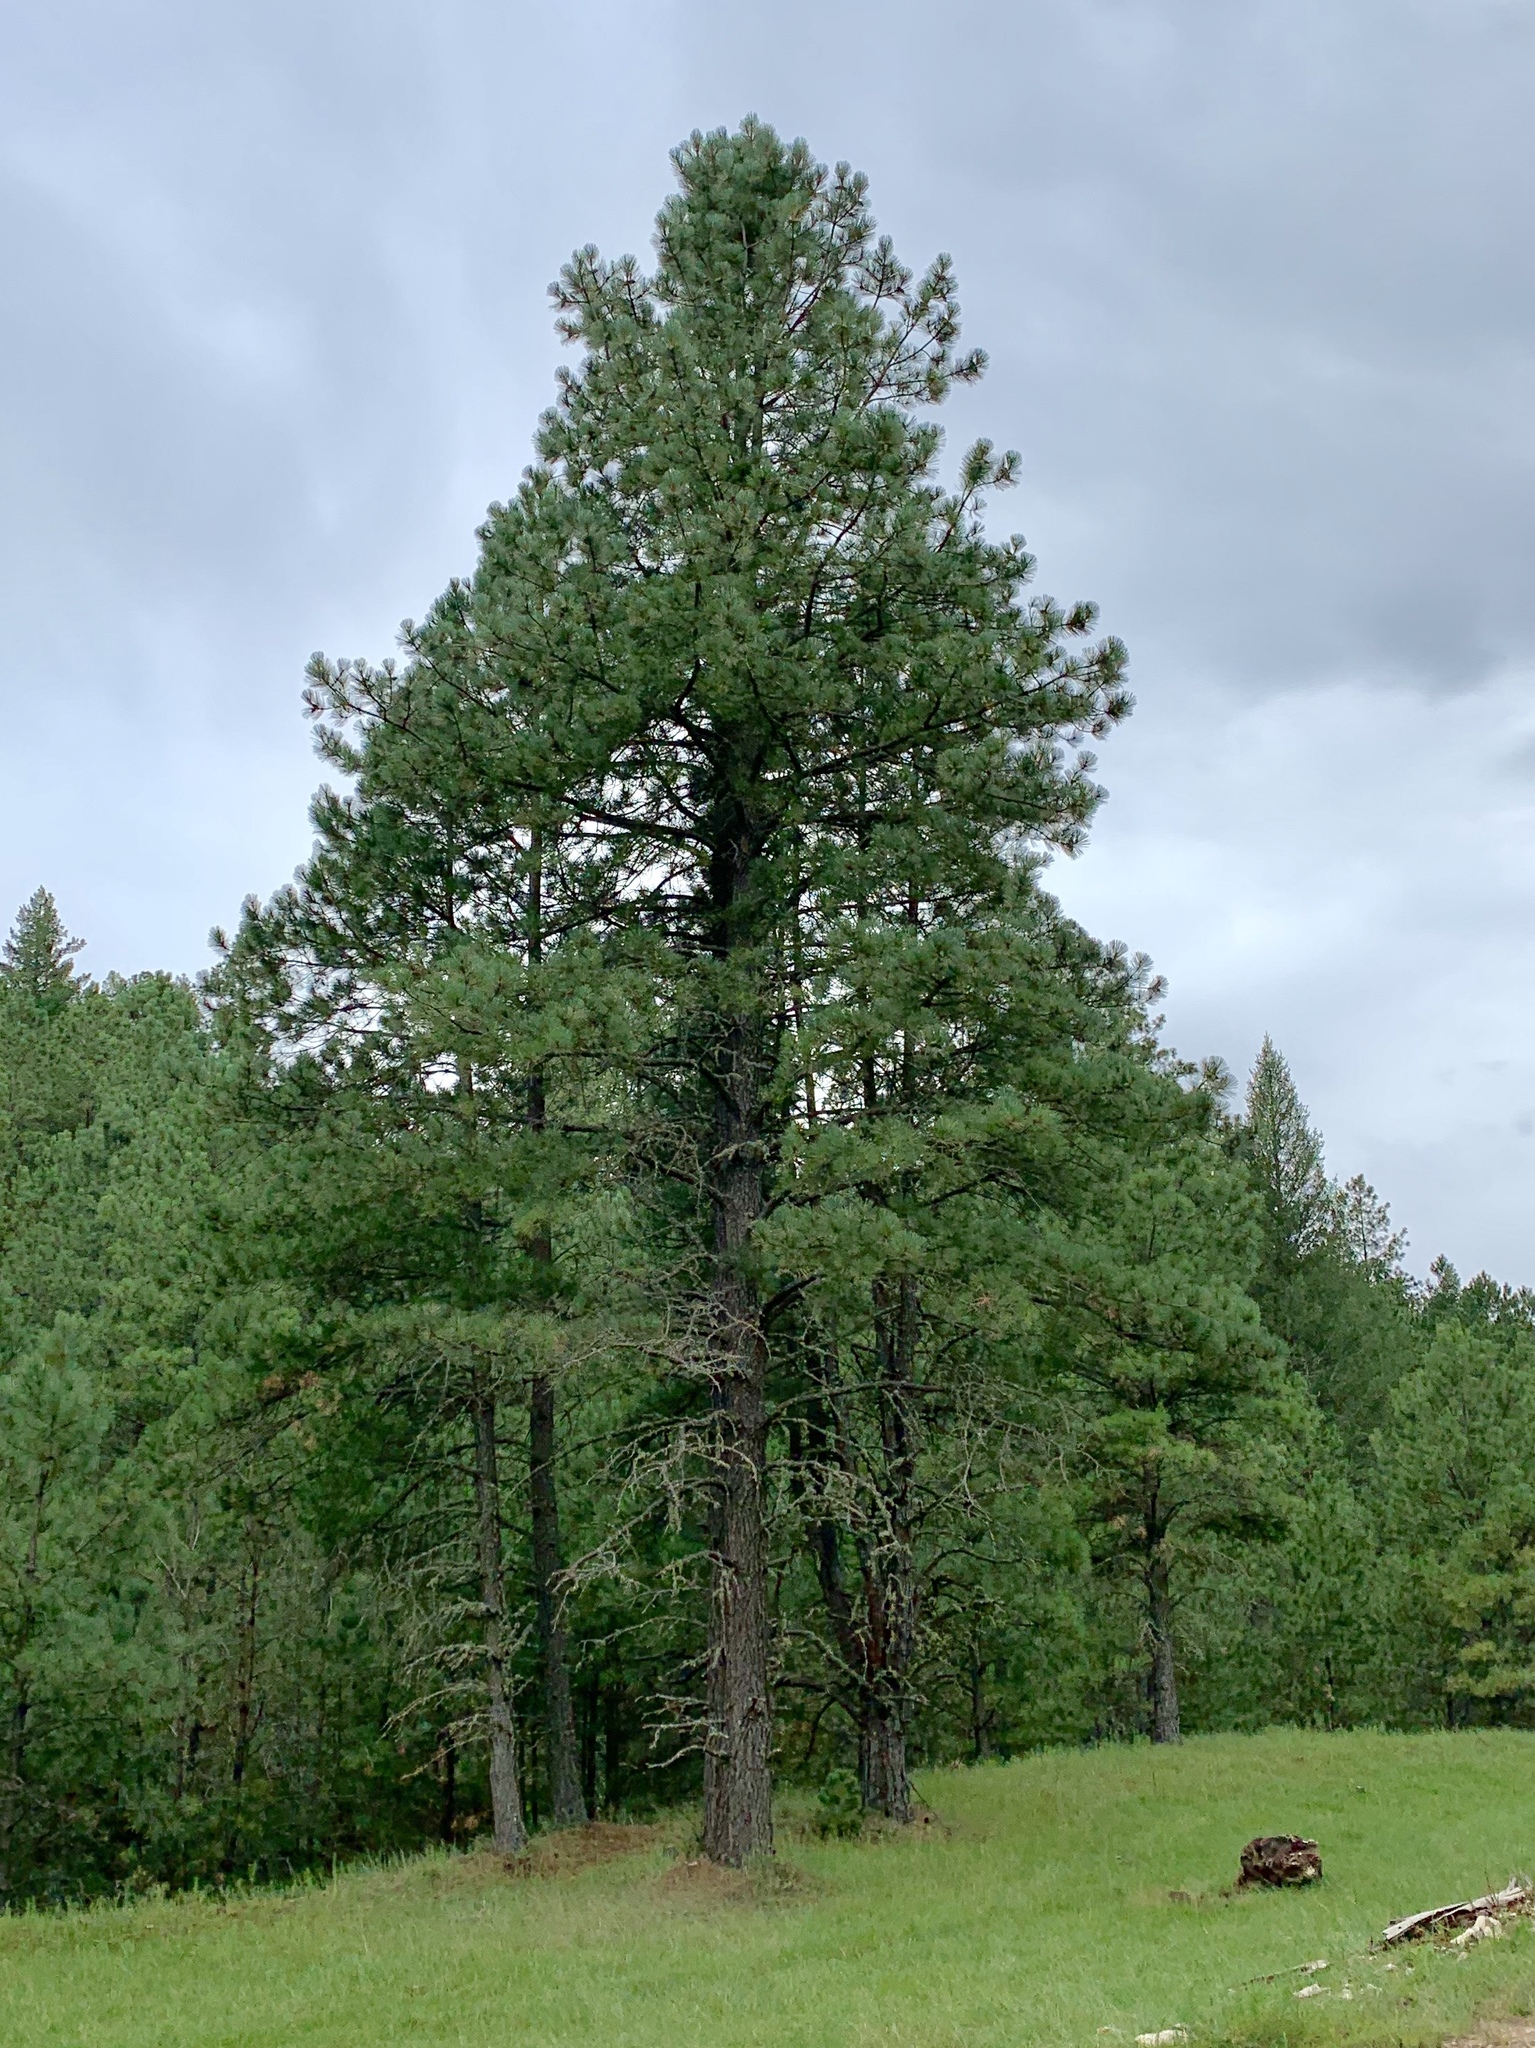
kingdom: Plantae
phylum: Tracheophyta
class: Pinopsida
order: Pinales
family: Pinaceae
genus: Pinus
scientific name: Pinus ponderosa
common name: Western yellow-pine
